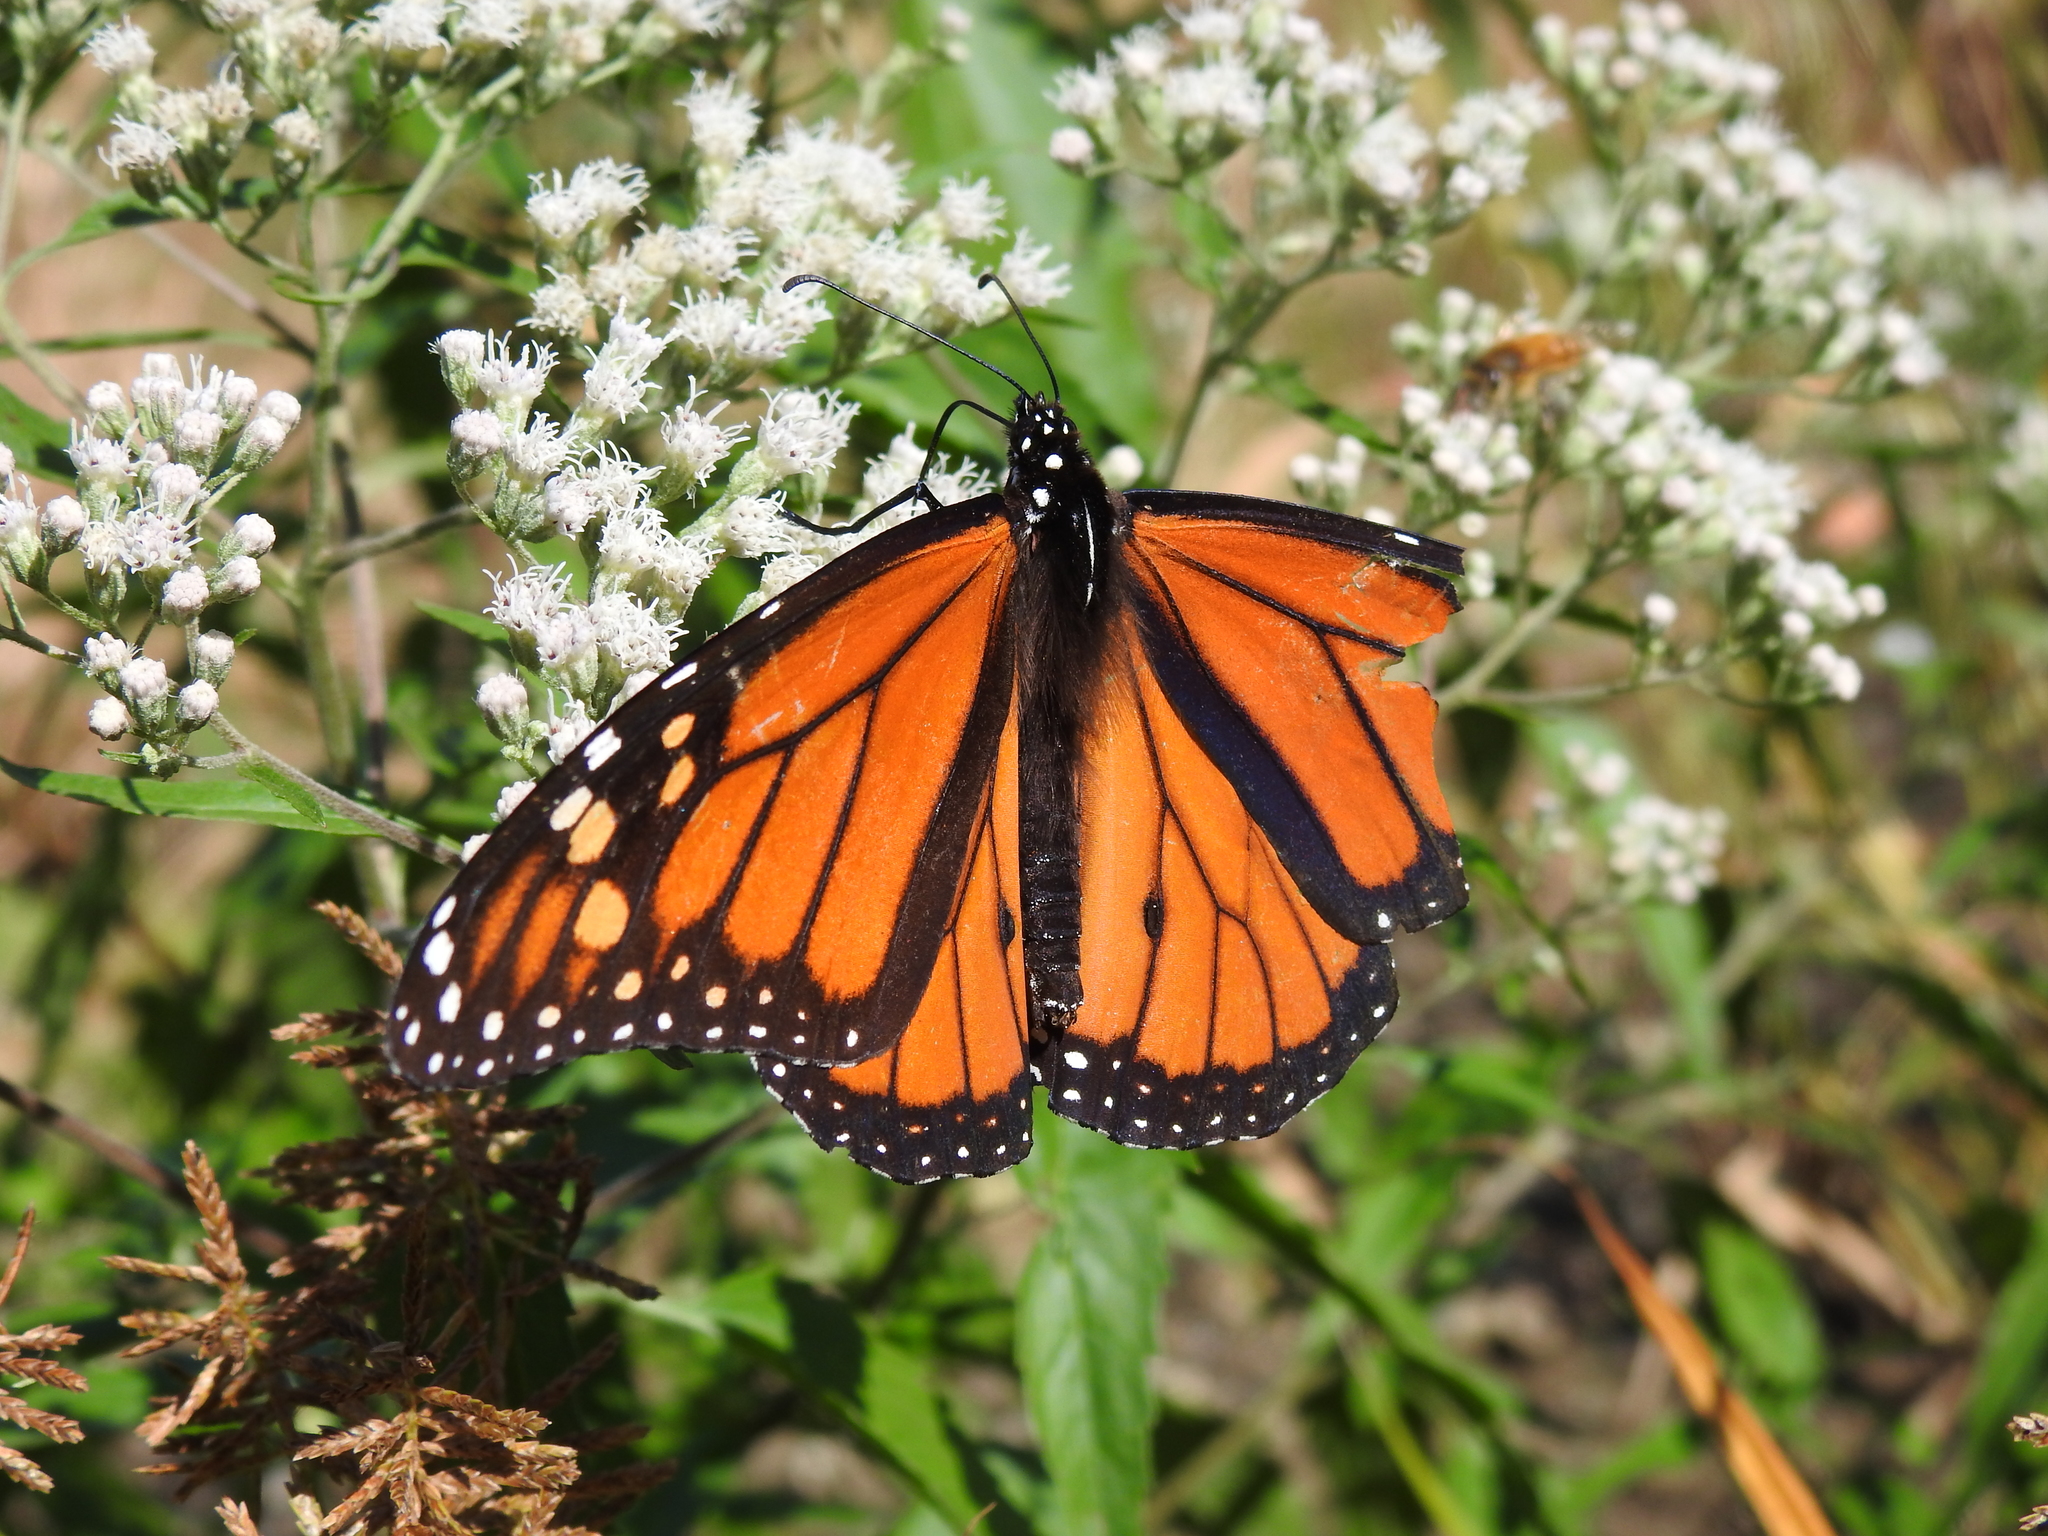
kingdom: Animalia
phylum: Arthropoda
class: Insecta
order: Lepidoptera
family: Nymphalidae
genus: Danaus
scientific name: Danaus plexippus
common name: Monarch
